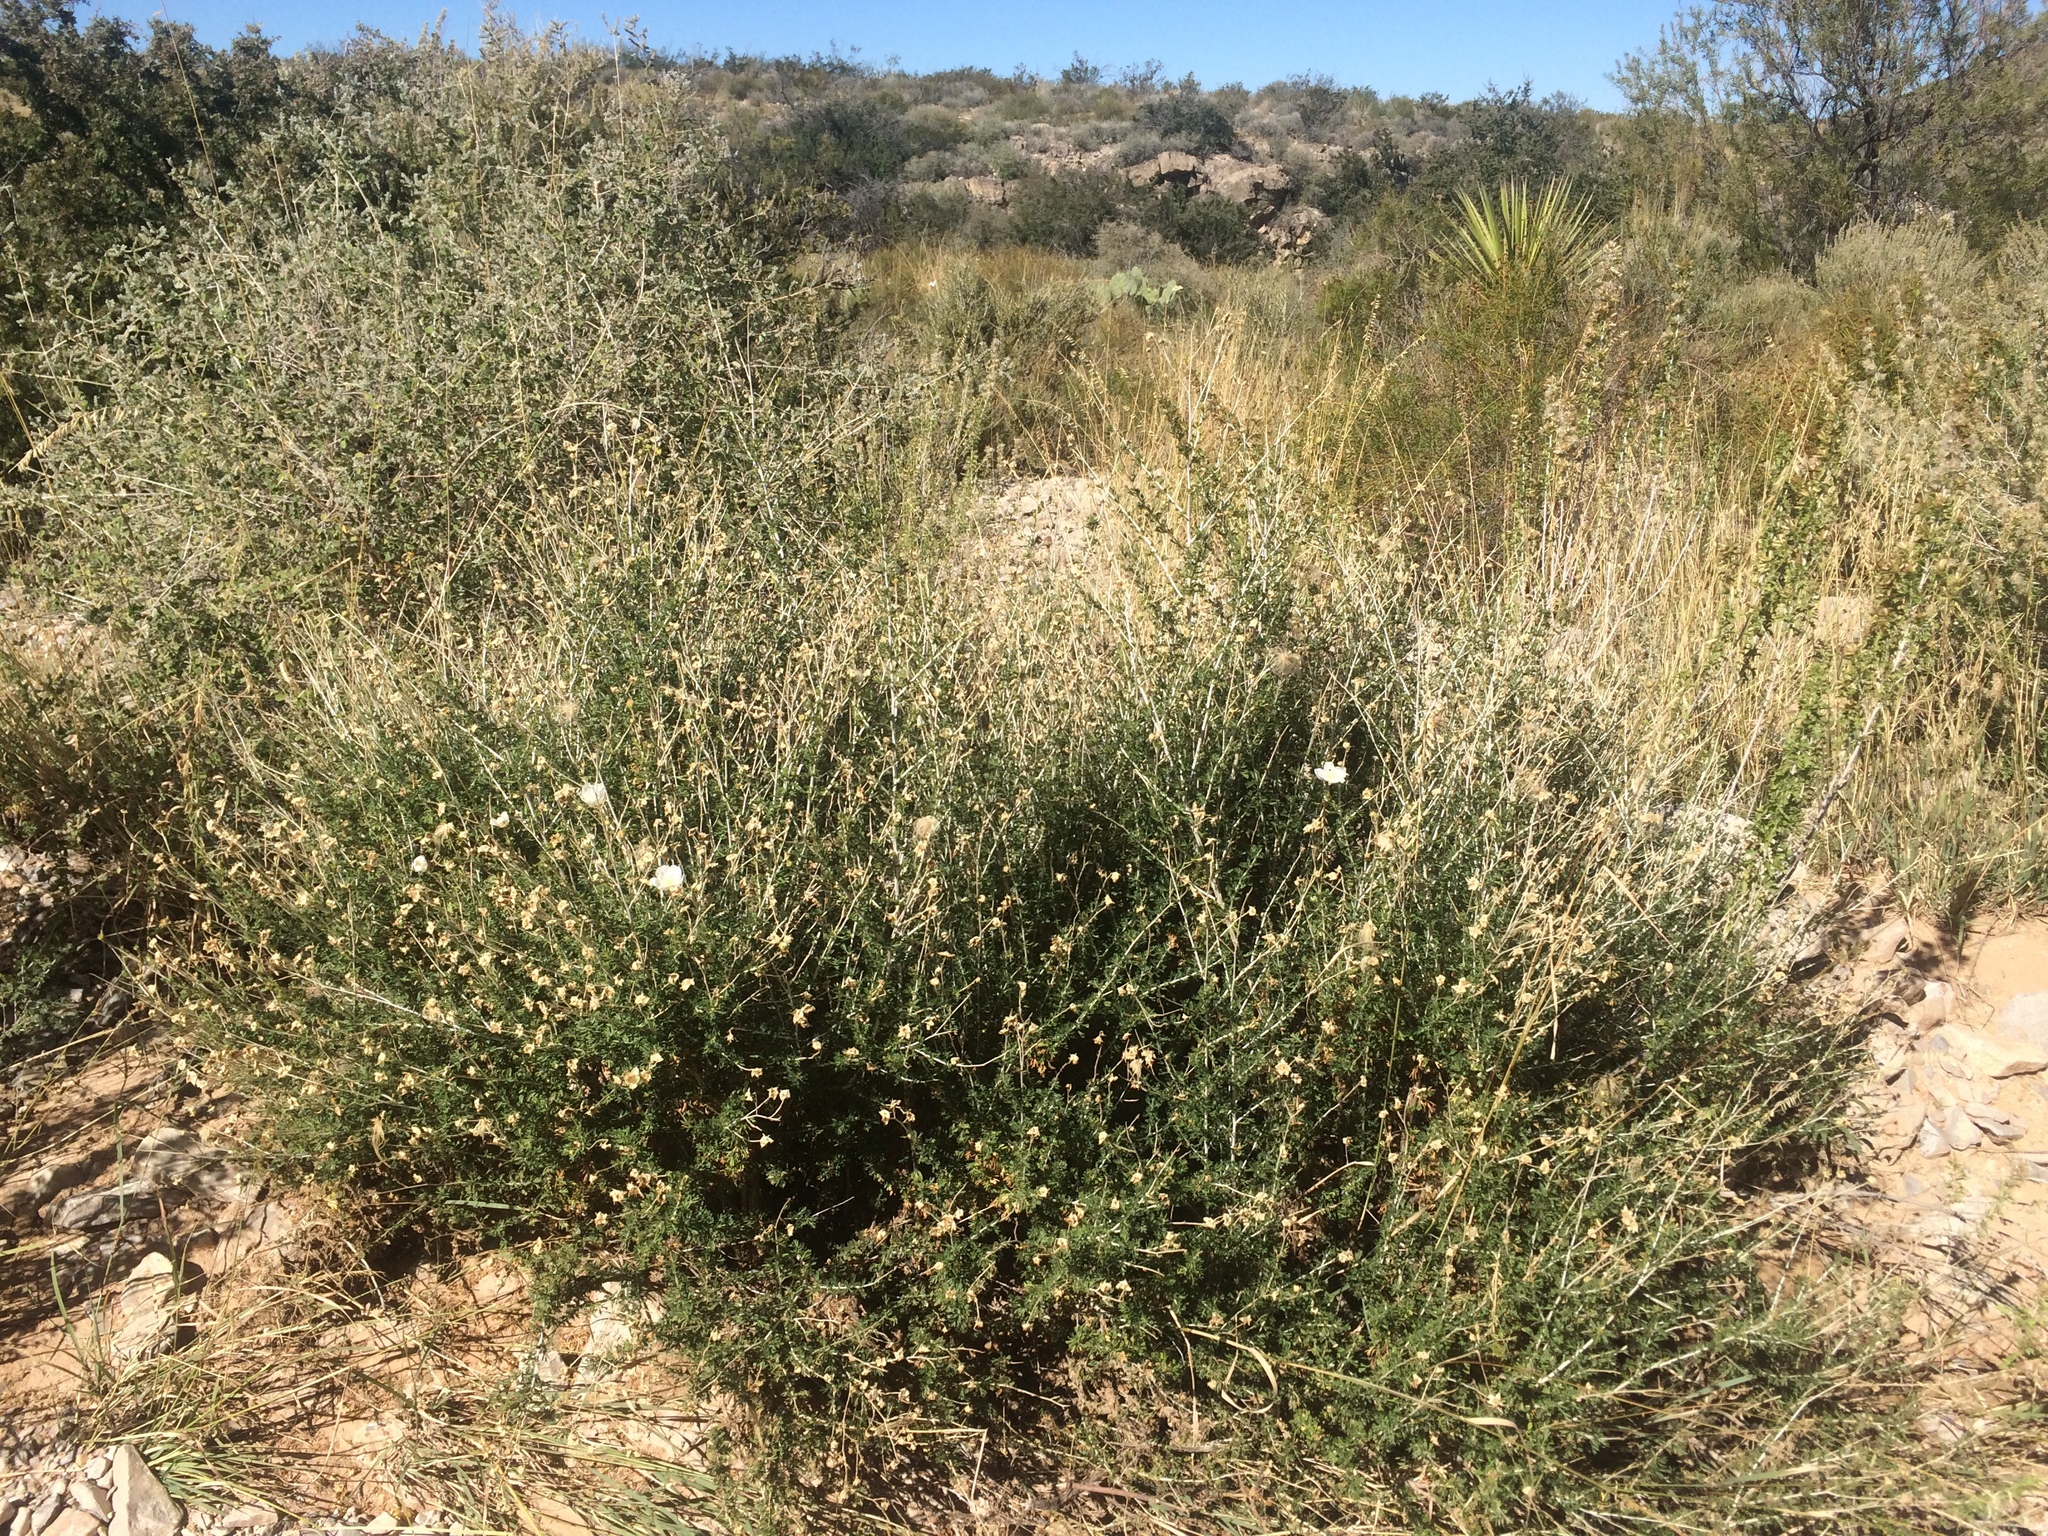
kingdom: Plantae
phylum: Tracheophyta
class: Magnoliopsida
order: Rosales
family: Rosaceae
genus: Fallugia
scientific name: Fallugia paradoxa
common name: Apache-plume
